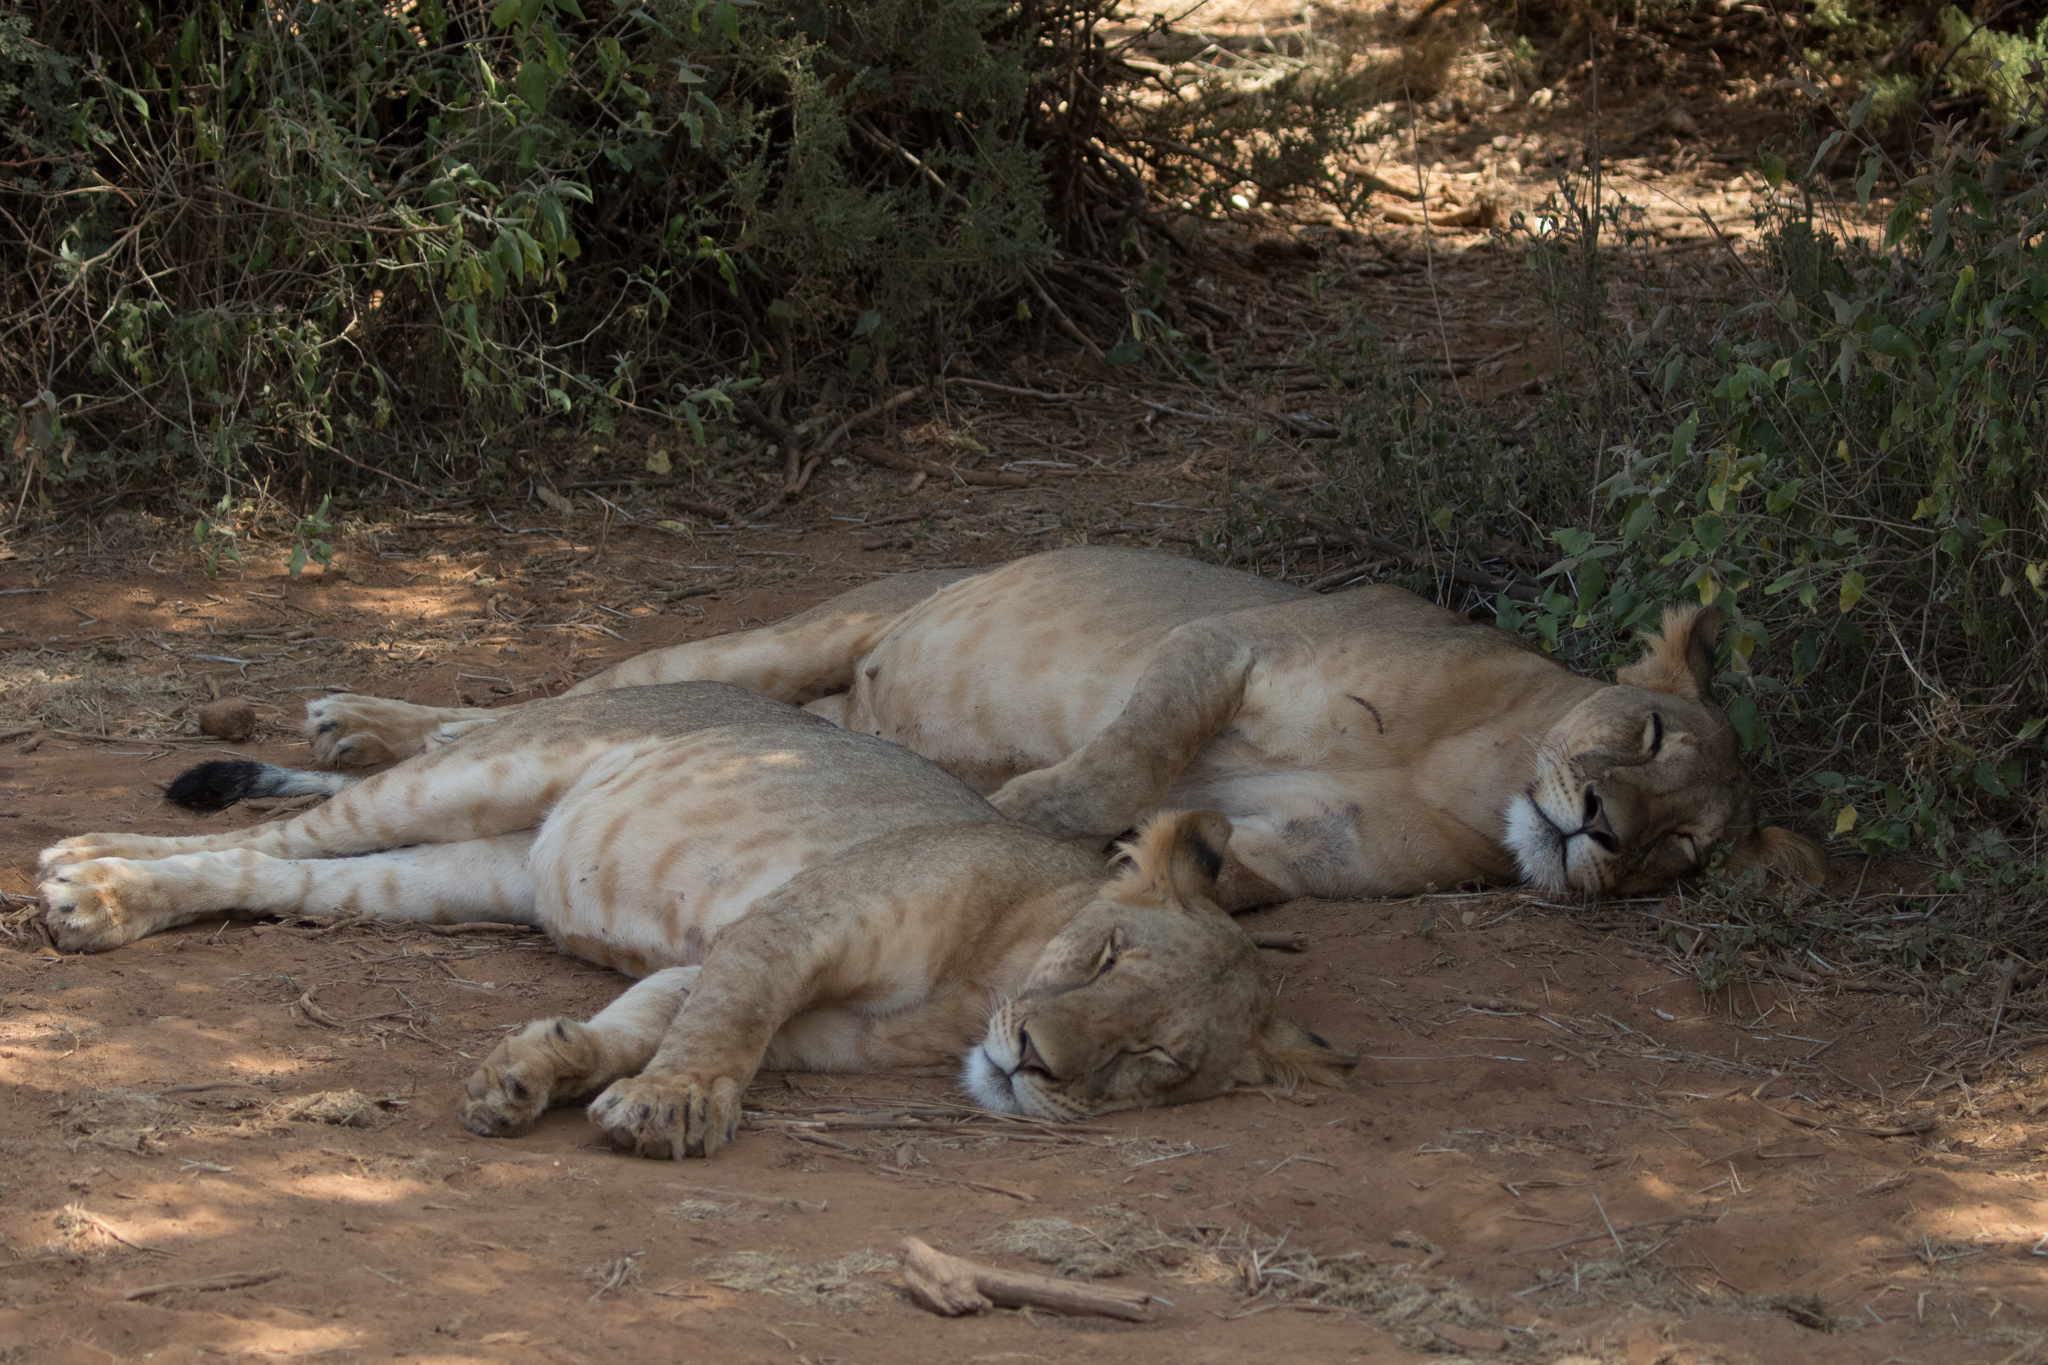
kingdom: Animalia
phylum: Chordata
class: Mammalia
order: Carnivora
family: Felidae
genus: Panthera
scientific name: Panthera leo
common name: Lion
